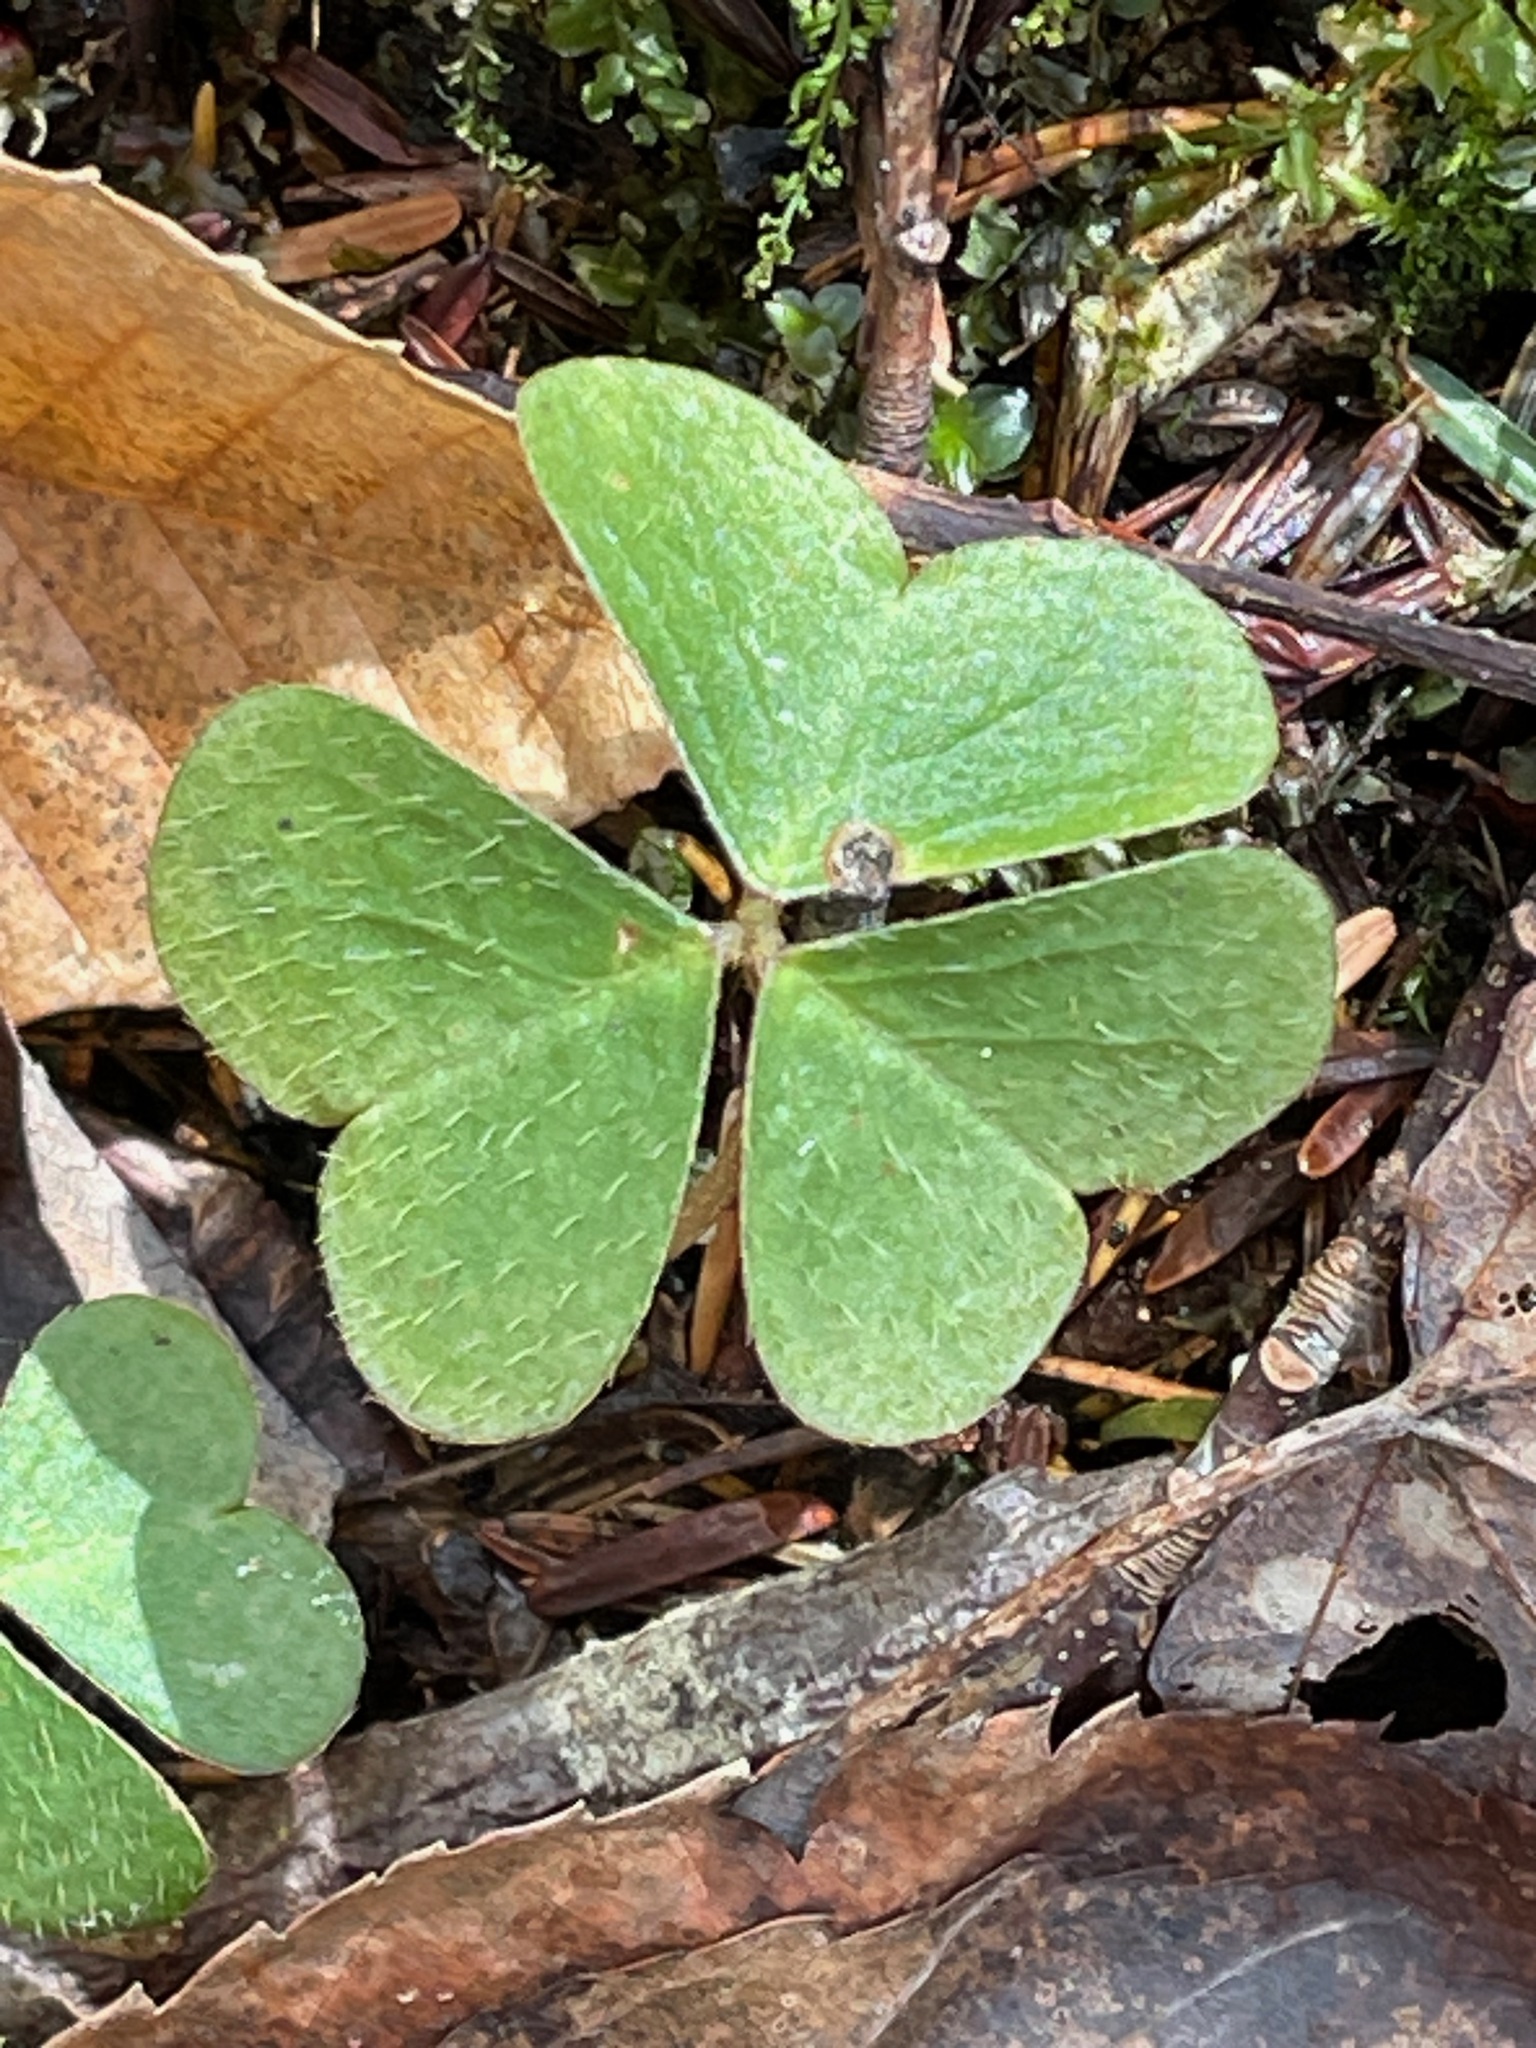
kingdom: Plantae
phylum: Tracheophyta
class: Magnoliopsida
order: Oxalidales
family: Oxalidaceae
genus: Oxalis
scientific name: Oxalis montana
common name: American wood-sorrel
